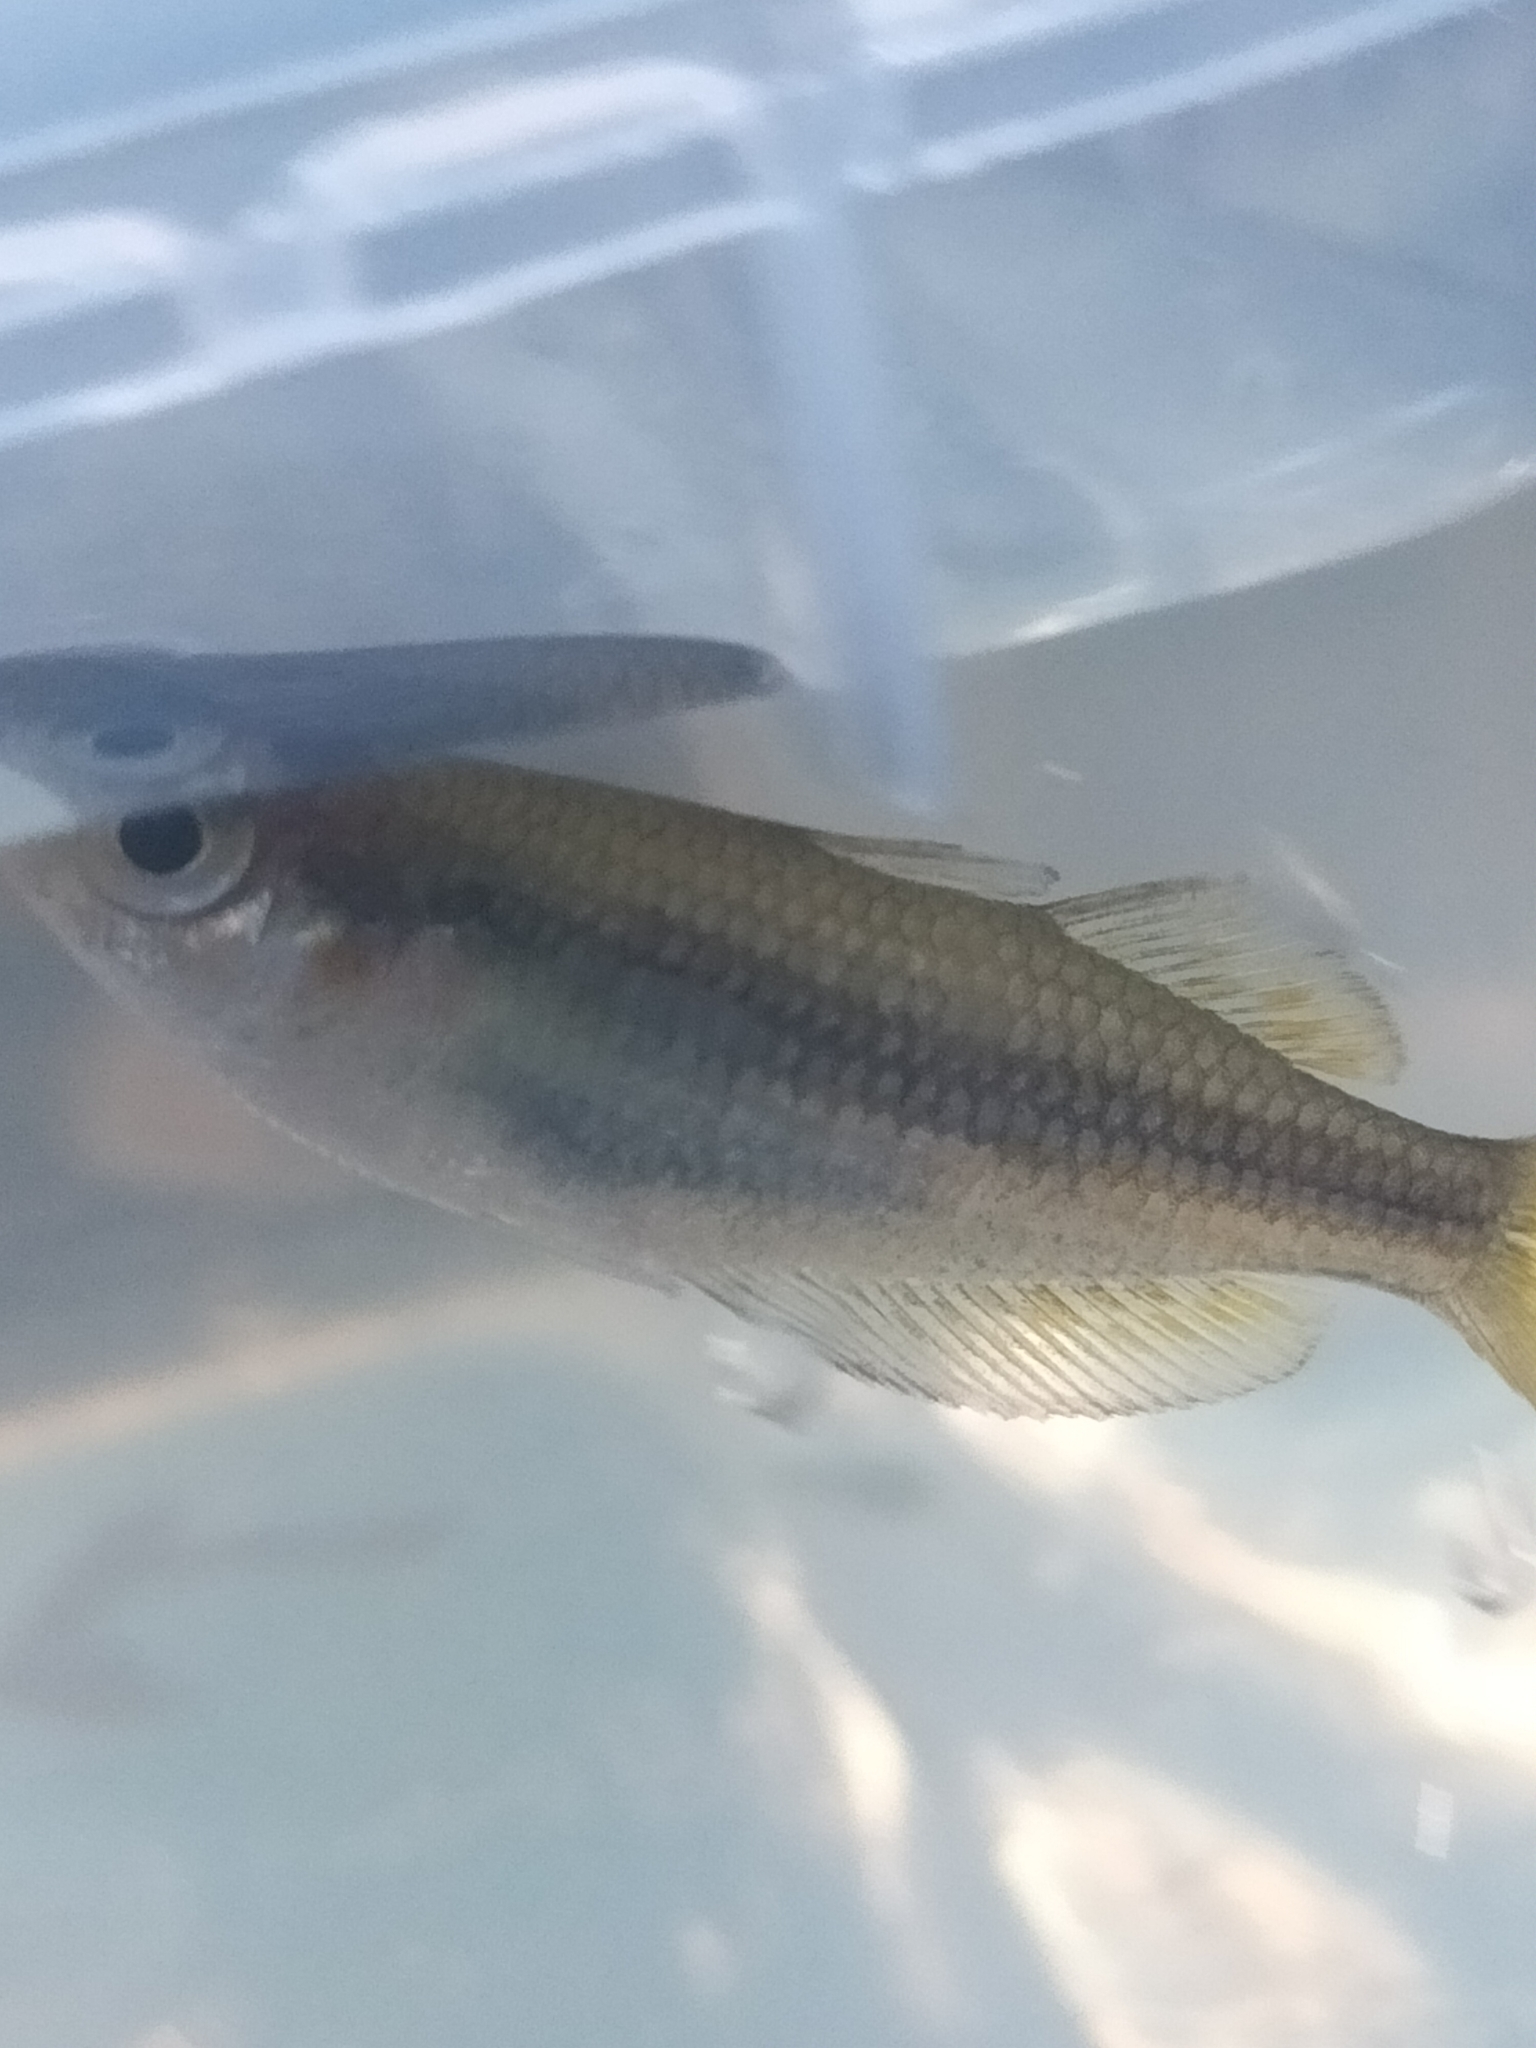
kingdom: Animalia
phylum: Chordata
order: Atheriniformes
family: Melanotaeniidae
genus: Melanotaenia
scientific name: Melanotaenia splendida
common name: Checkered rainbowfish
